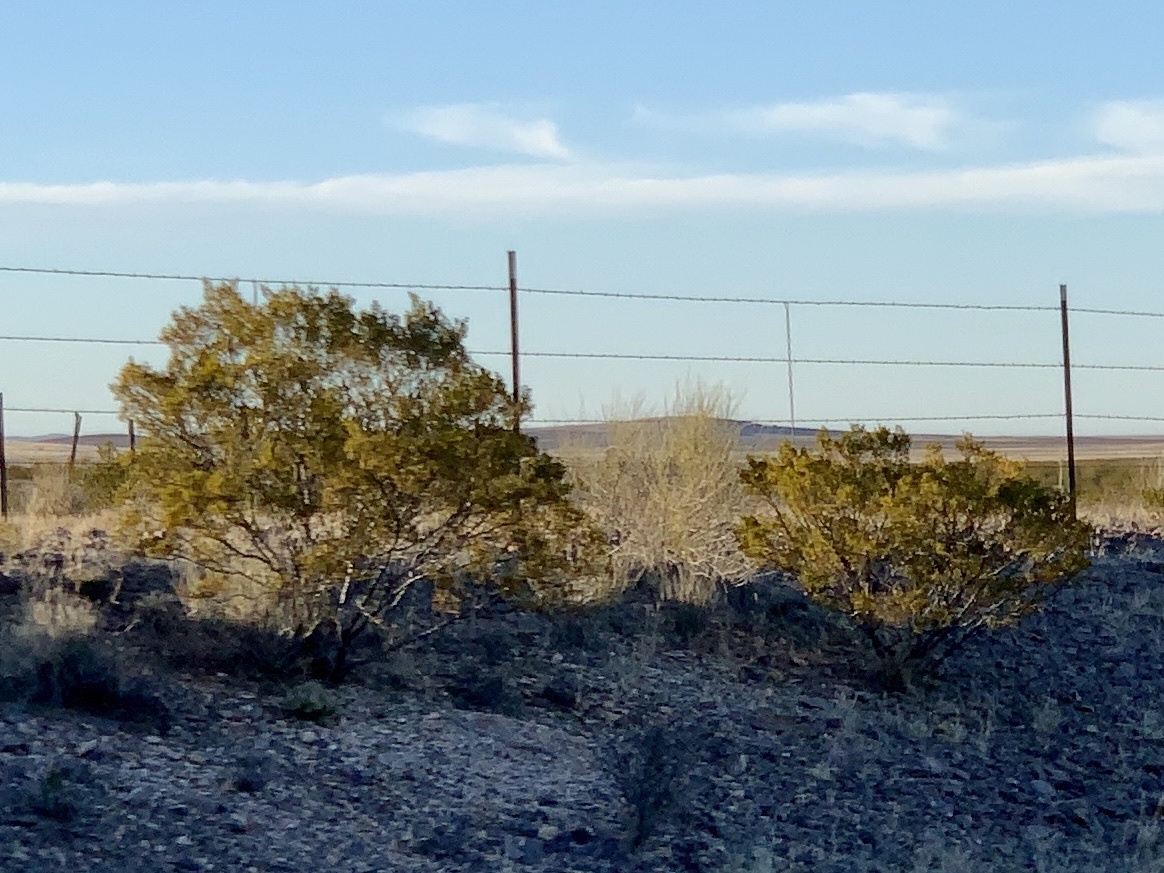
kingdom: Plantae
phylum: Tracheophyta
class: Magnoliopsida
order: Zygophyllales
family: Zygophyllaceae
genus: Larrea
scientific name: Larrea tridentata
